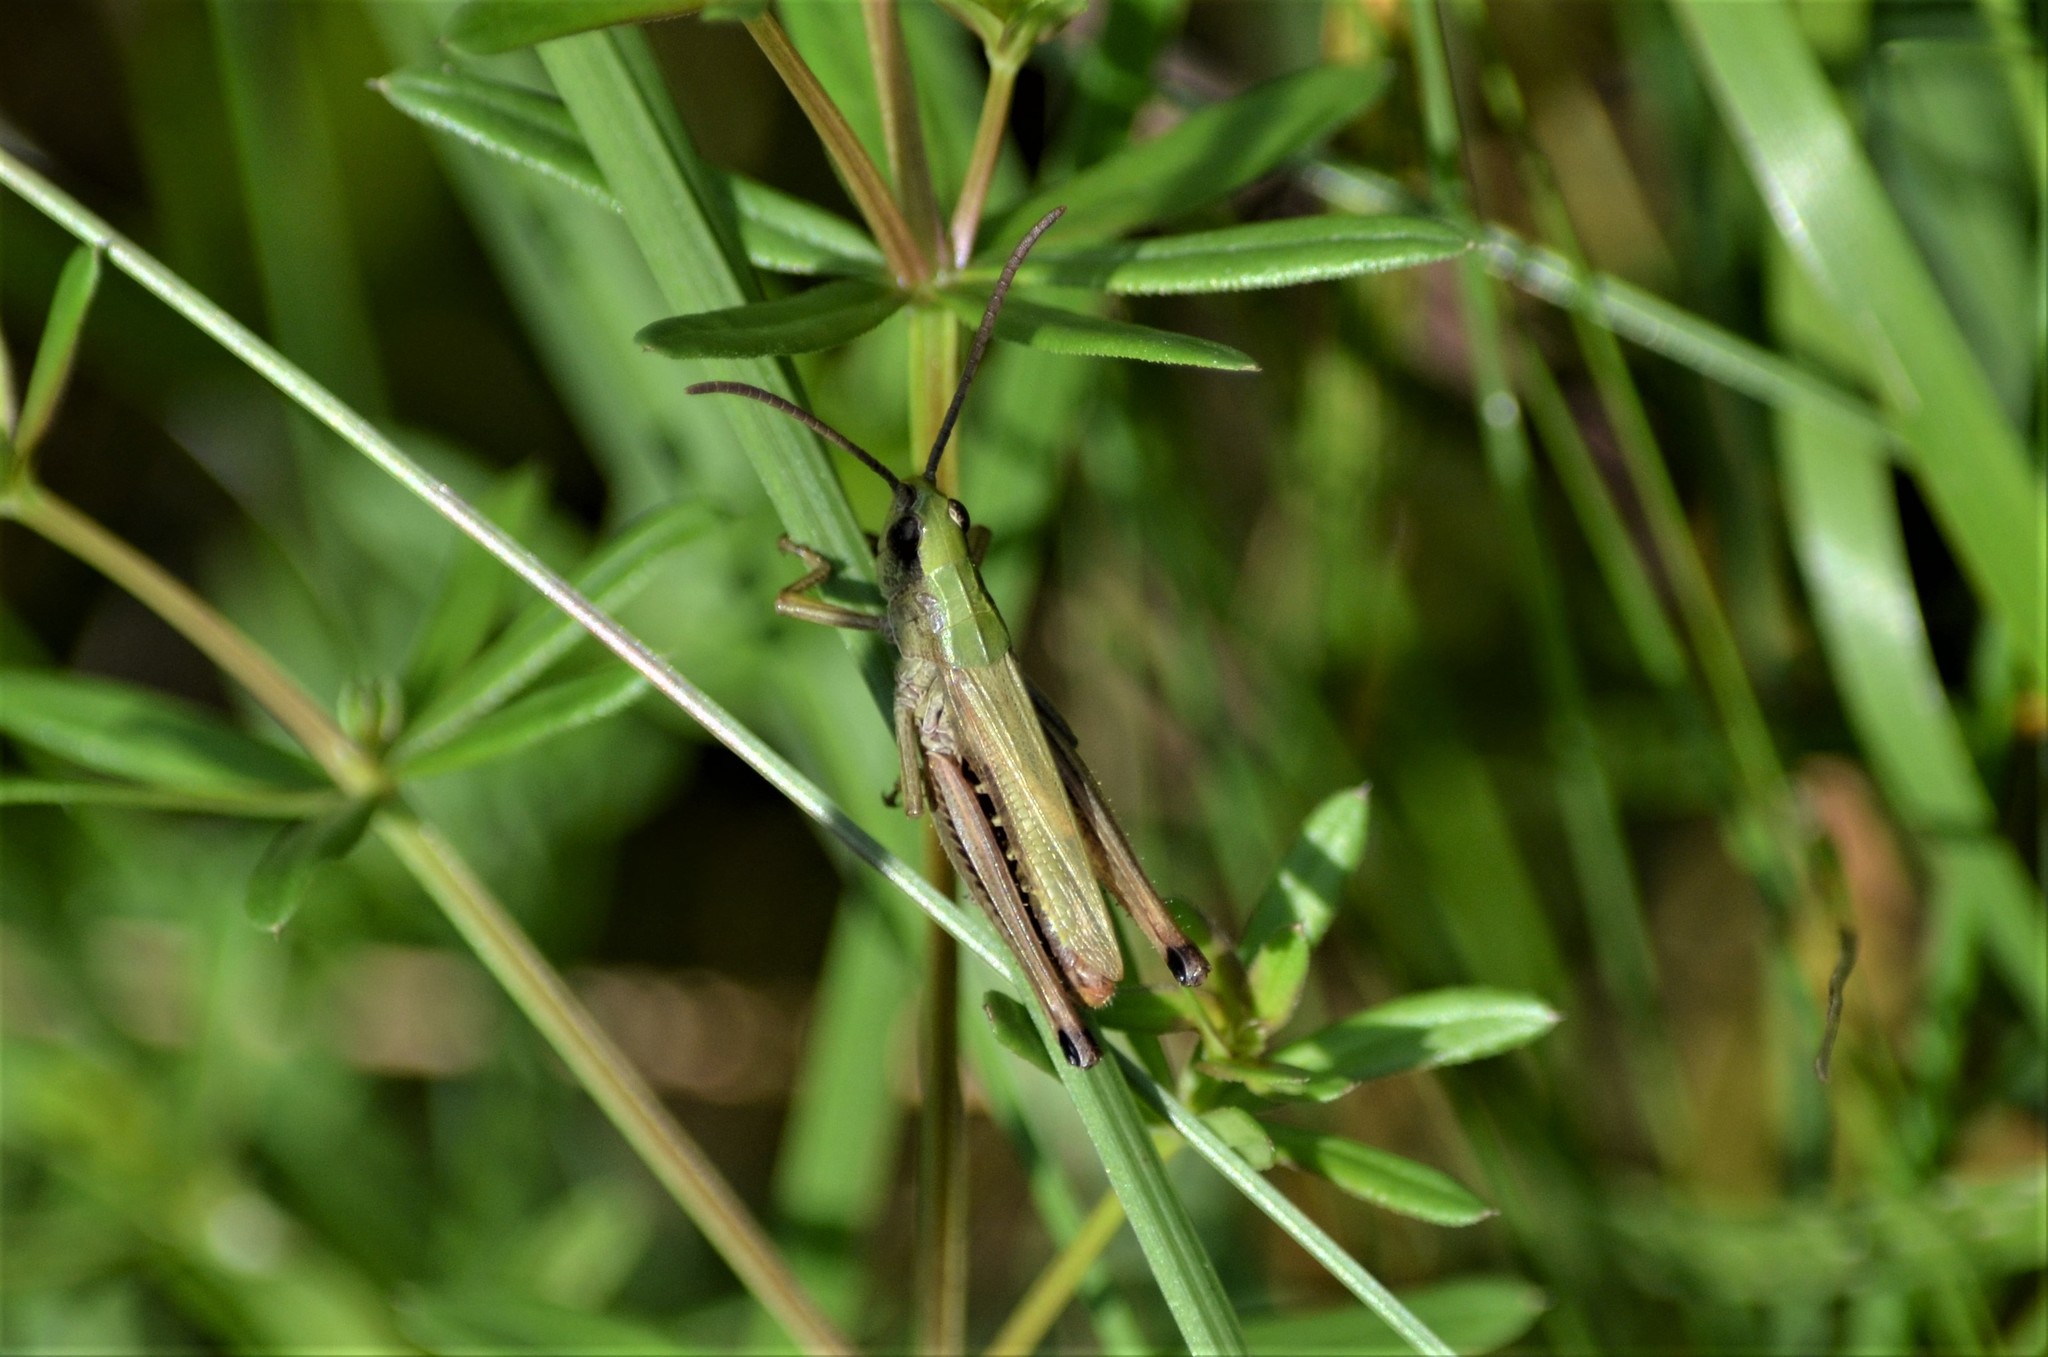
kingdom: Animalia
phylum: Arthropoda
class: Insecta
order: Orthoptera
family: Acrididae
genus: Pseudochorthippus
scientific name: Pseudochorthippus parallelus
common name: Meadow grasshopper
